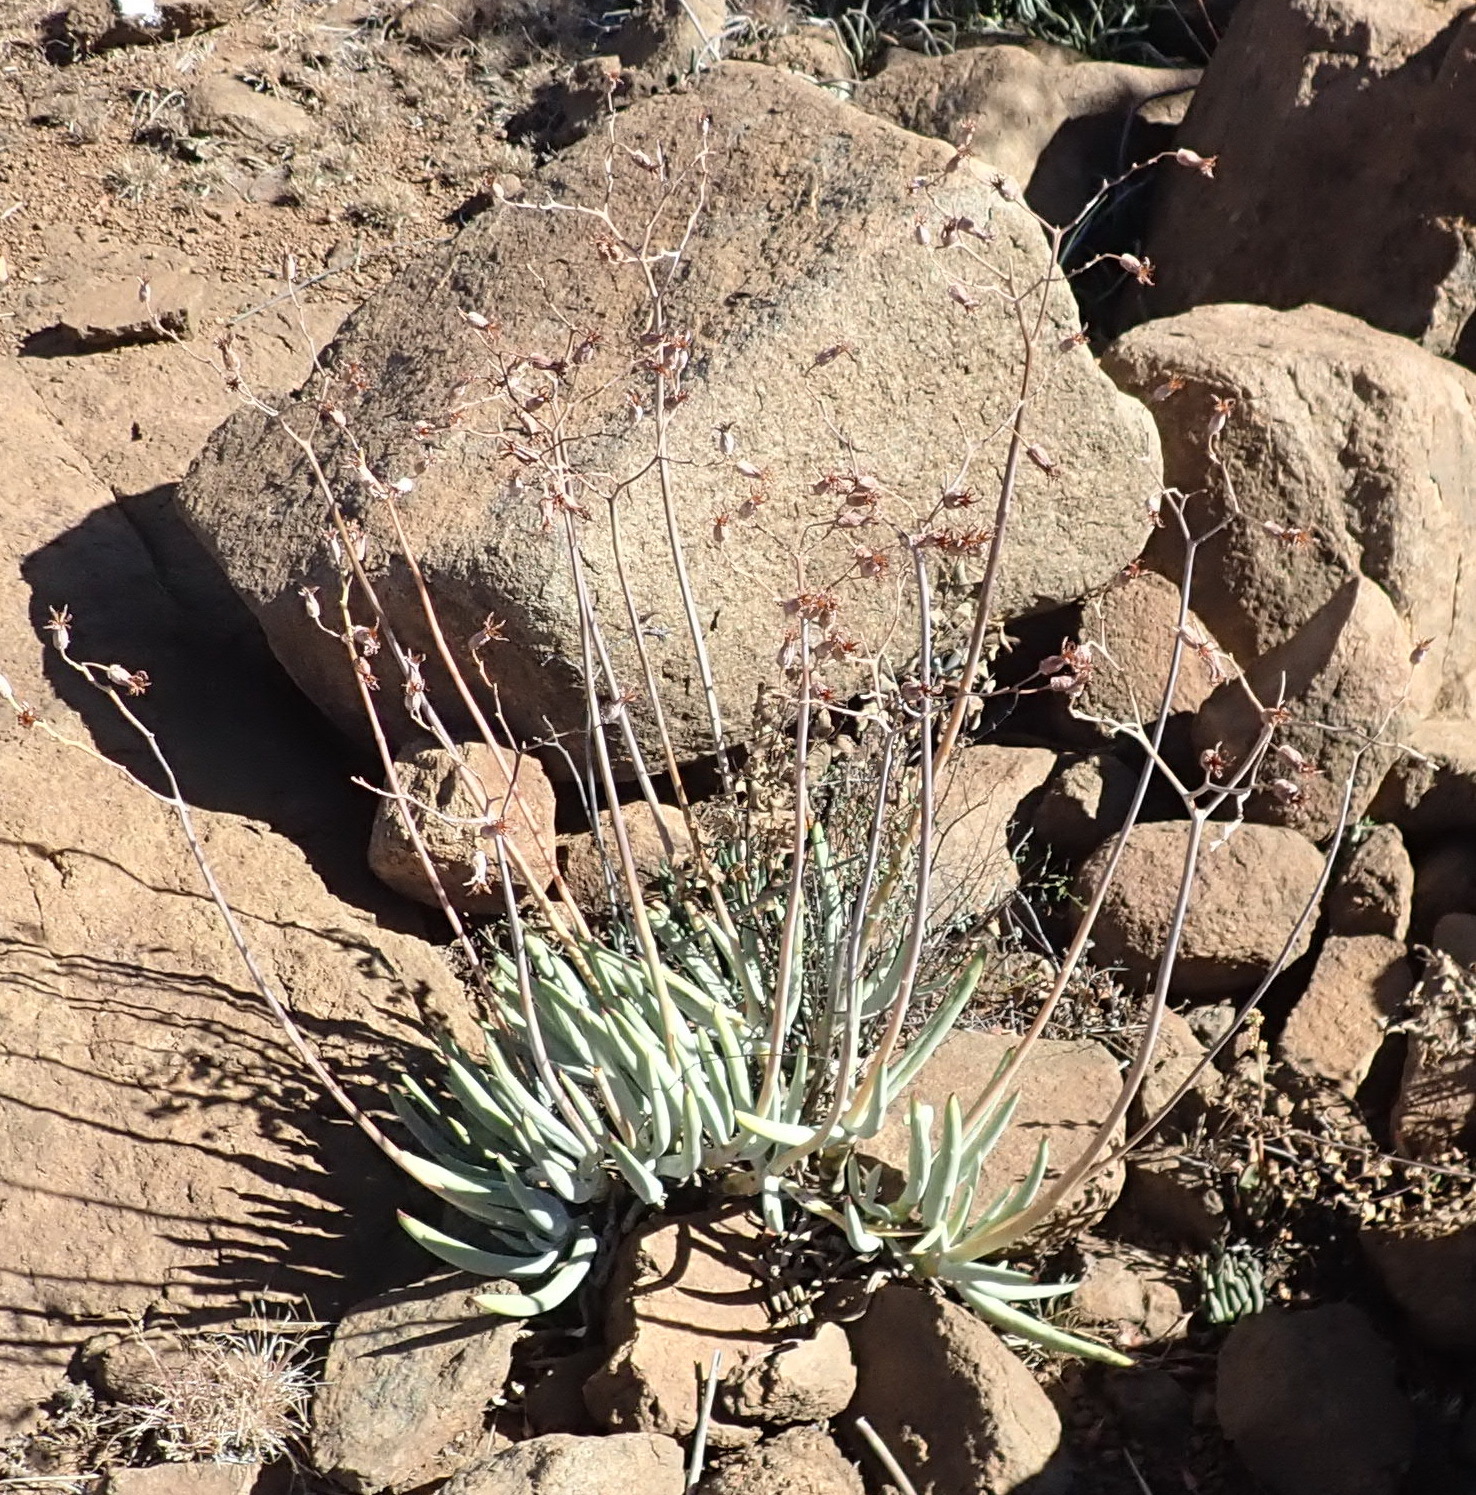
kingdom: Plantae
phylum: Tracheophyta
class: Magnoliopsida
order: Saxifragales
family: Crassulaceae
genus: Cotyledon
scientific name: Cotyledon orbiculata
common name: Pig's ear
